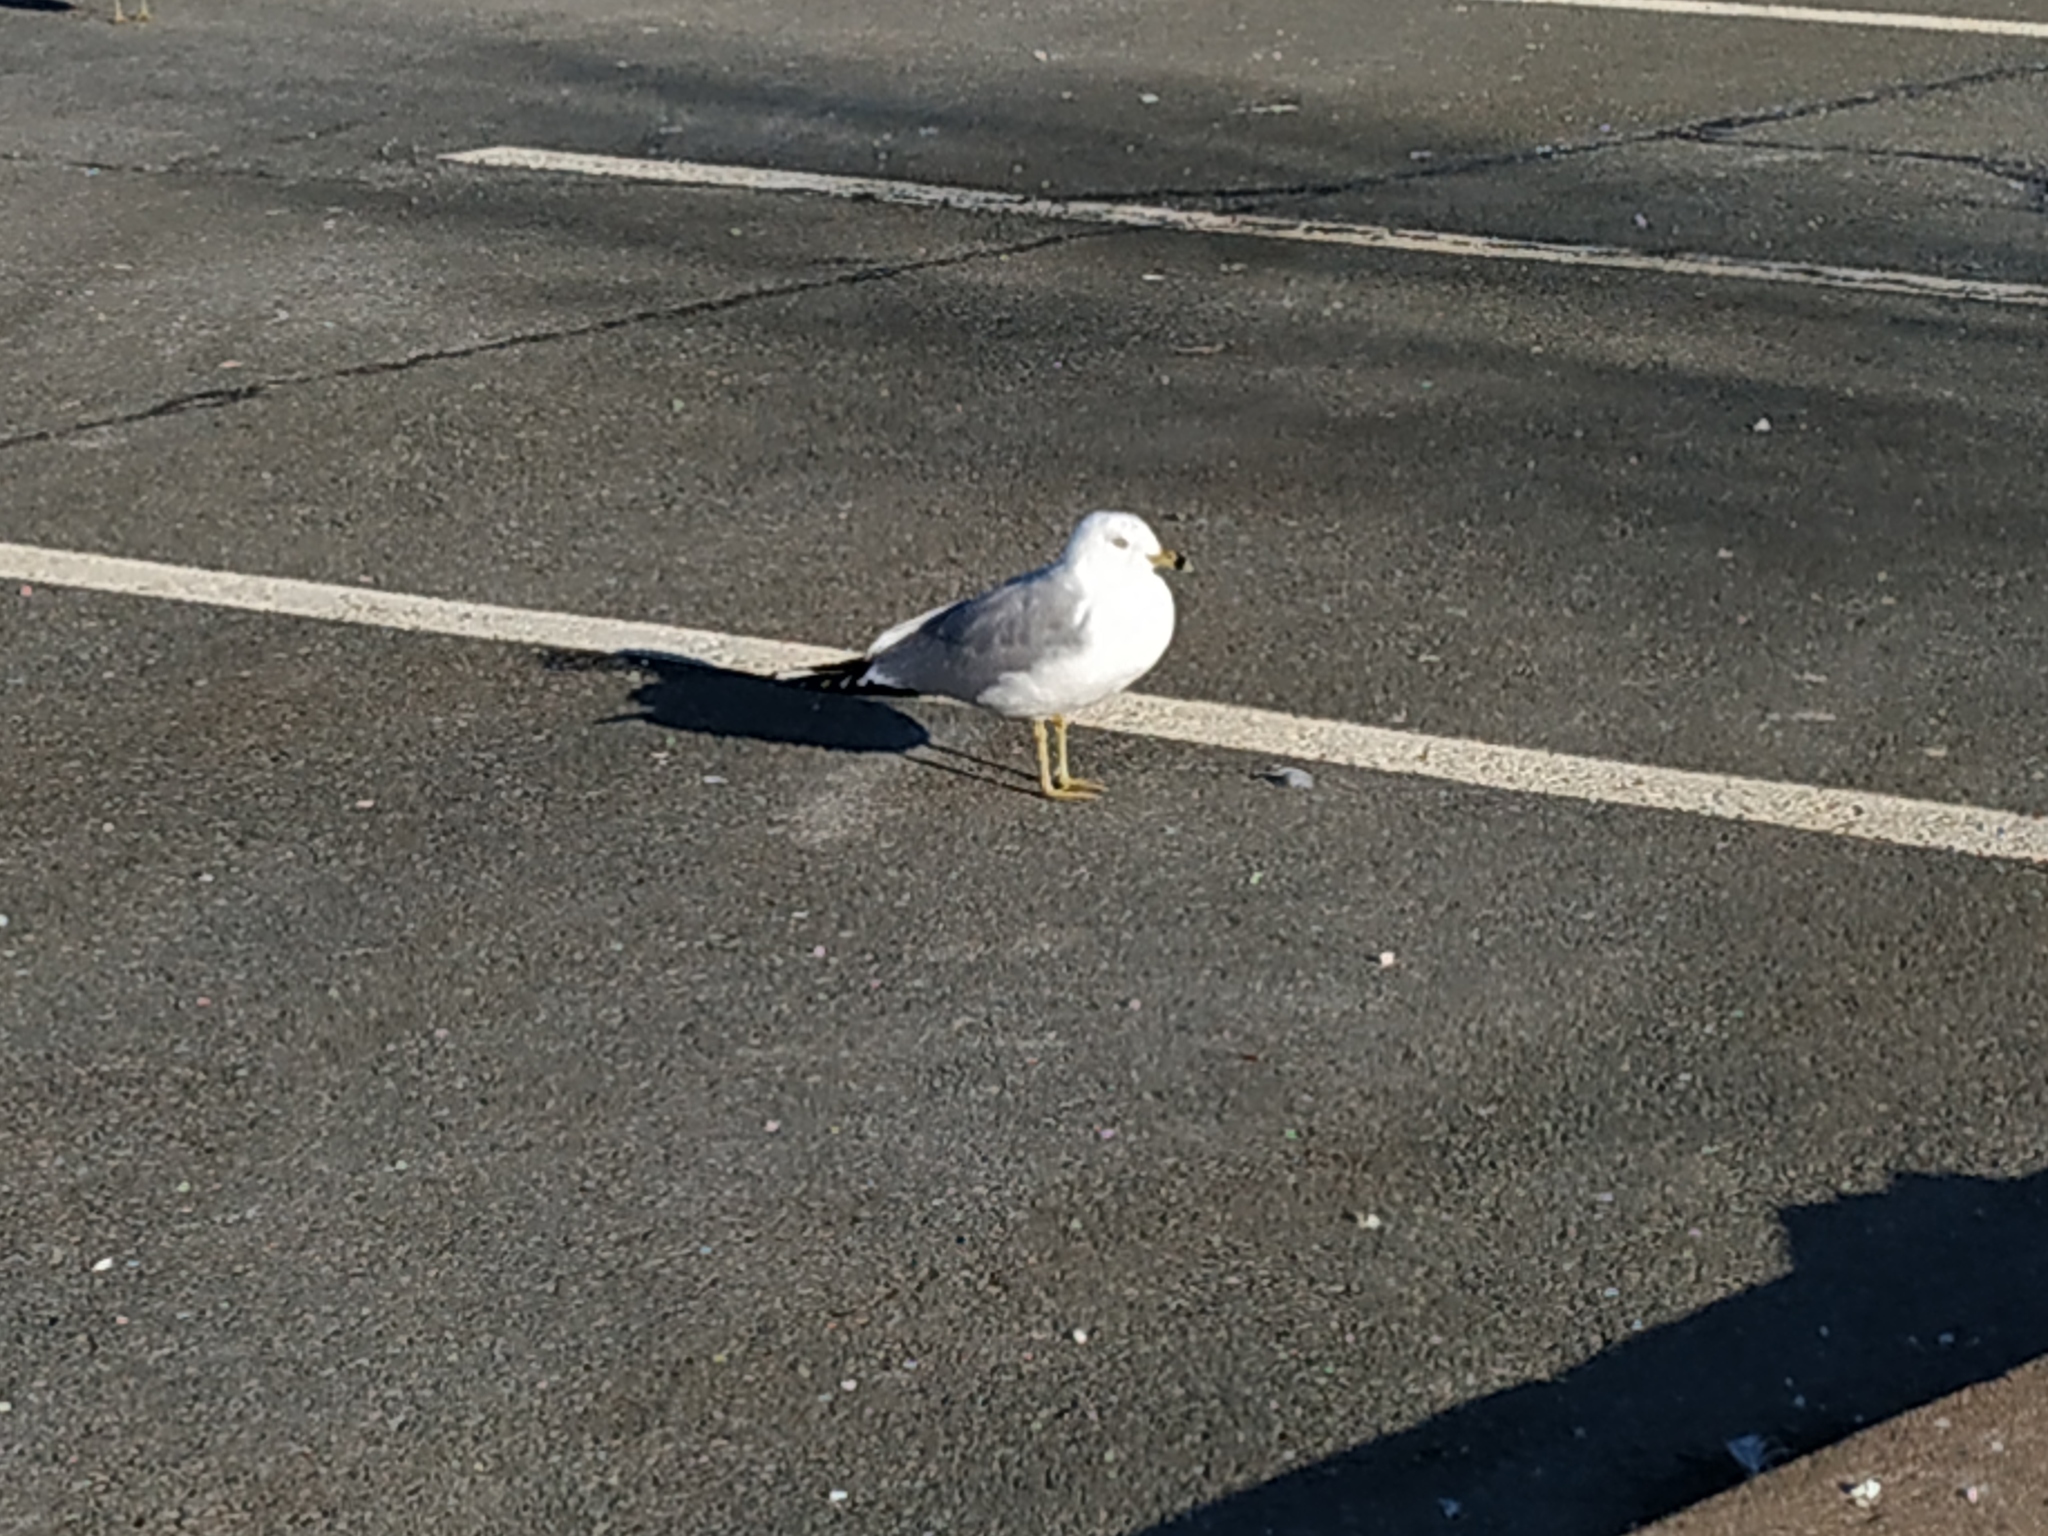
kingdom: Animalia
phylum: Chordata
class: Aves
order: Charadriiformes
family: Laridae
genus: Larus
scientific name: Larus delawarensis
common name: Ring-billed gull
